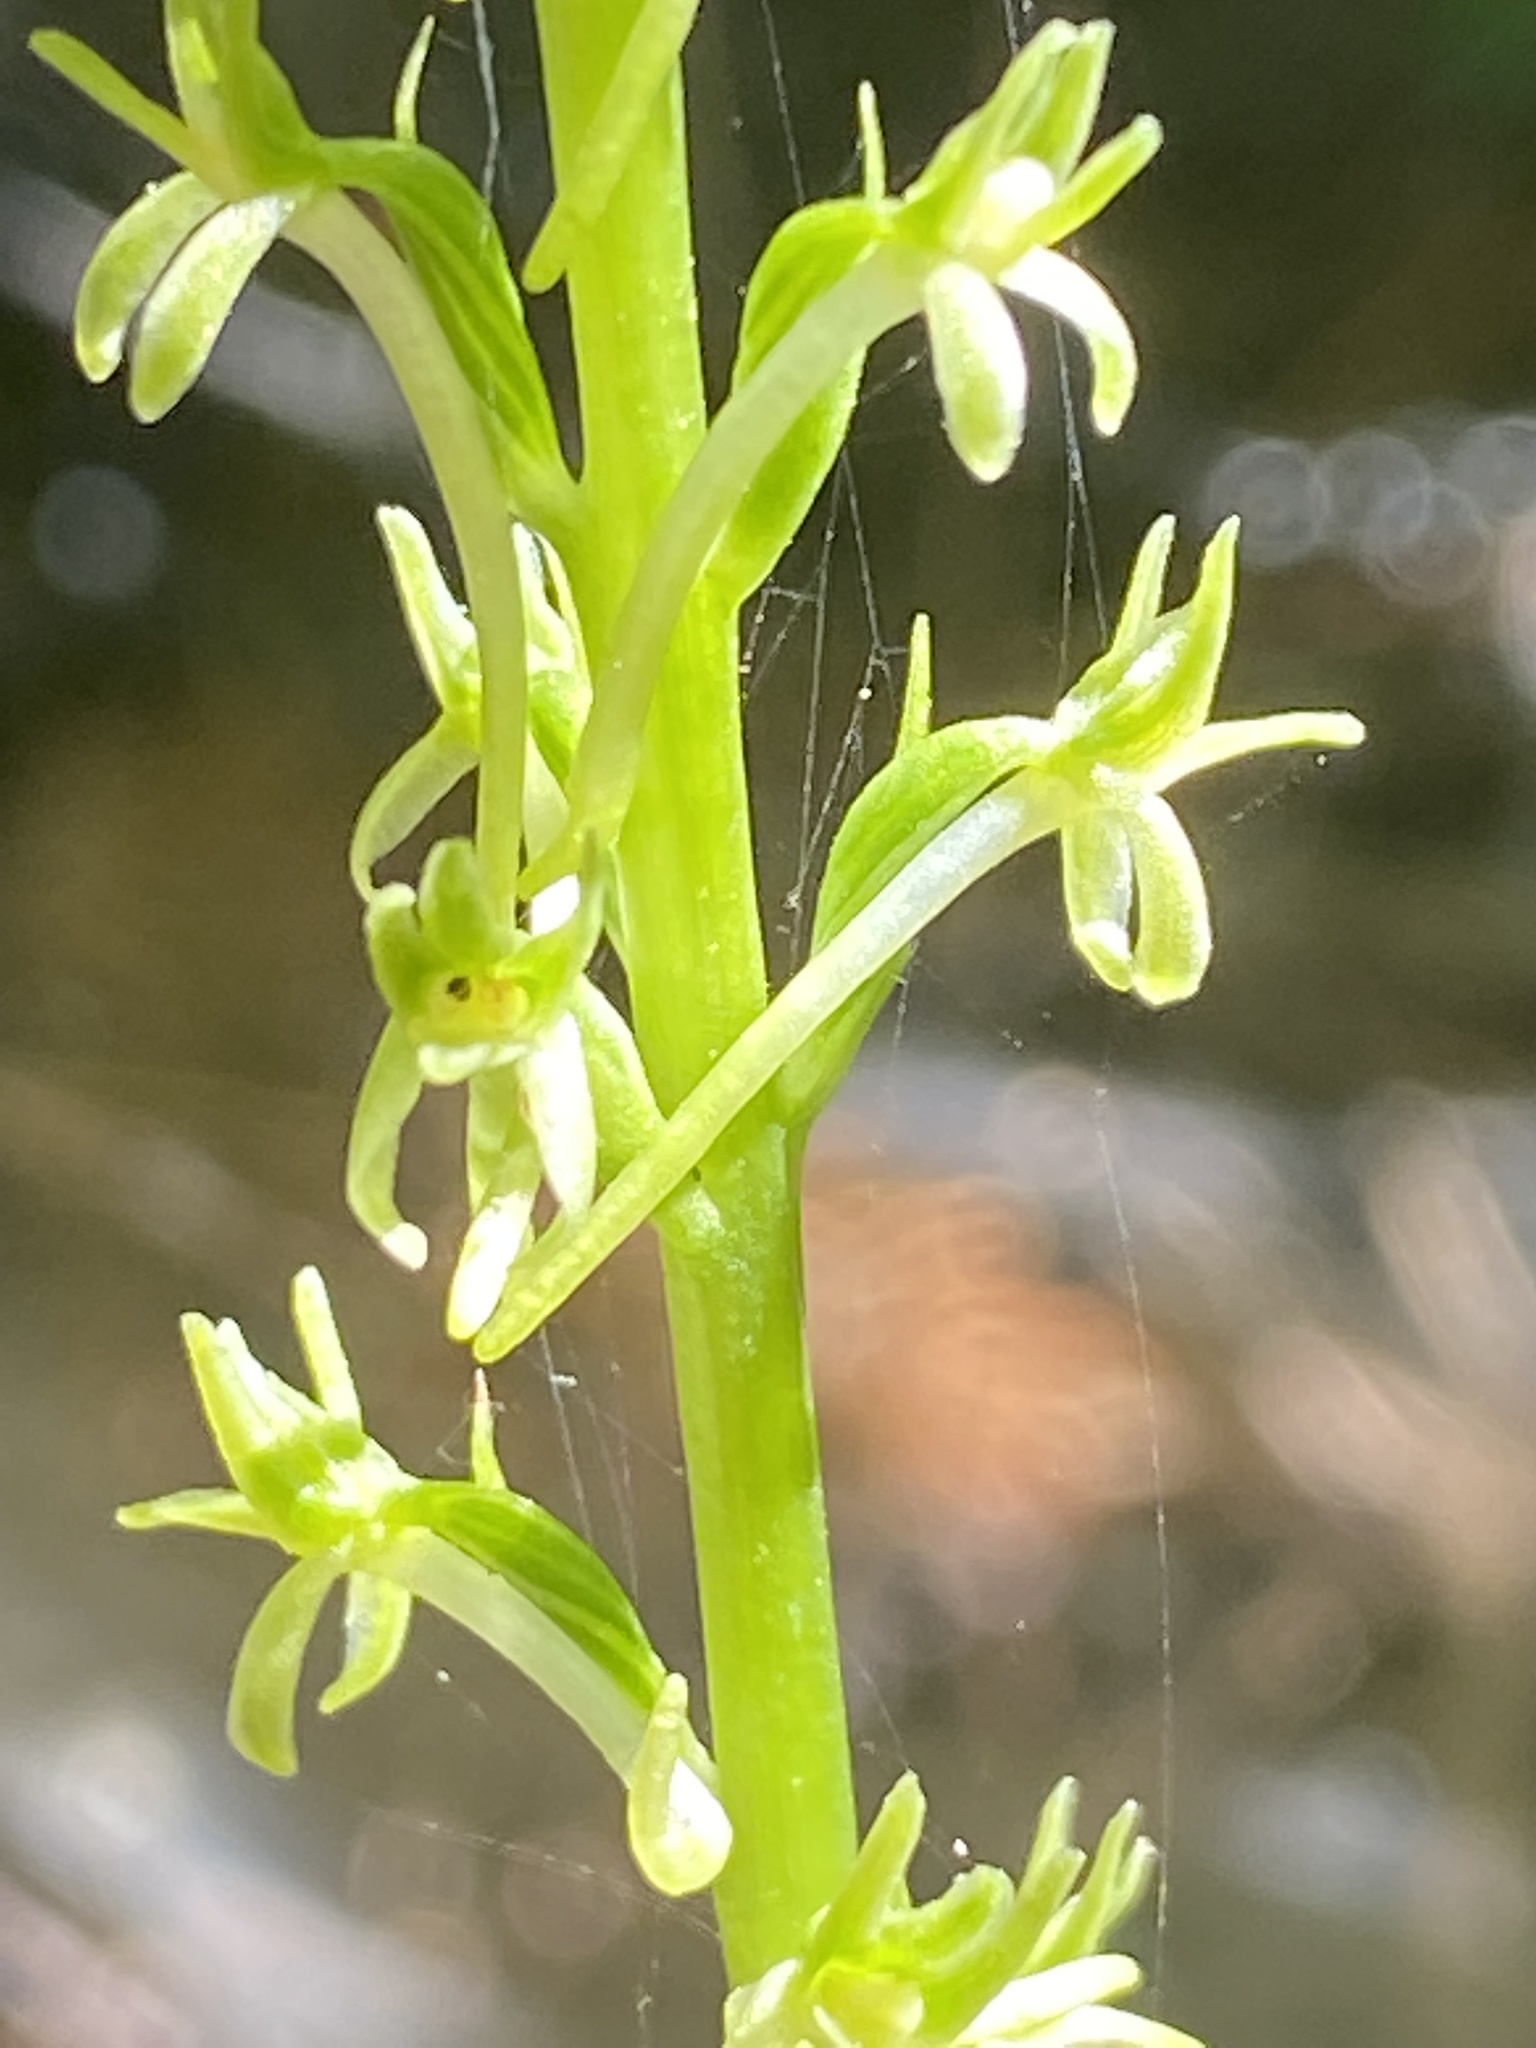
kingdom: Plantae
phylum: Tracheophyta
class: Liliopsida
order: Asparagales
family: Orchidaceae
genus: Platanthera
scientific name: Platanthera elongata
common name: Dense-flowered rein orchid
